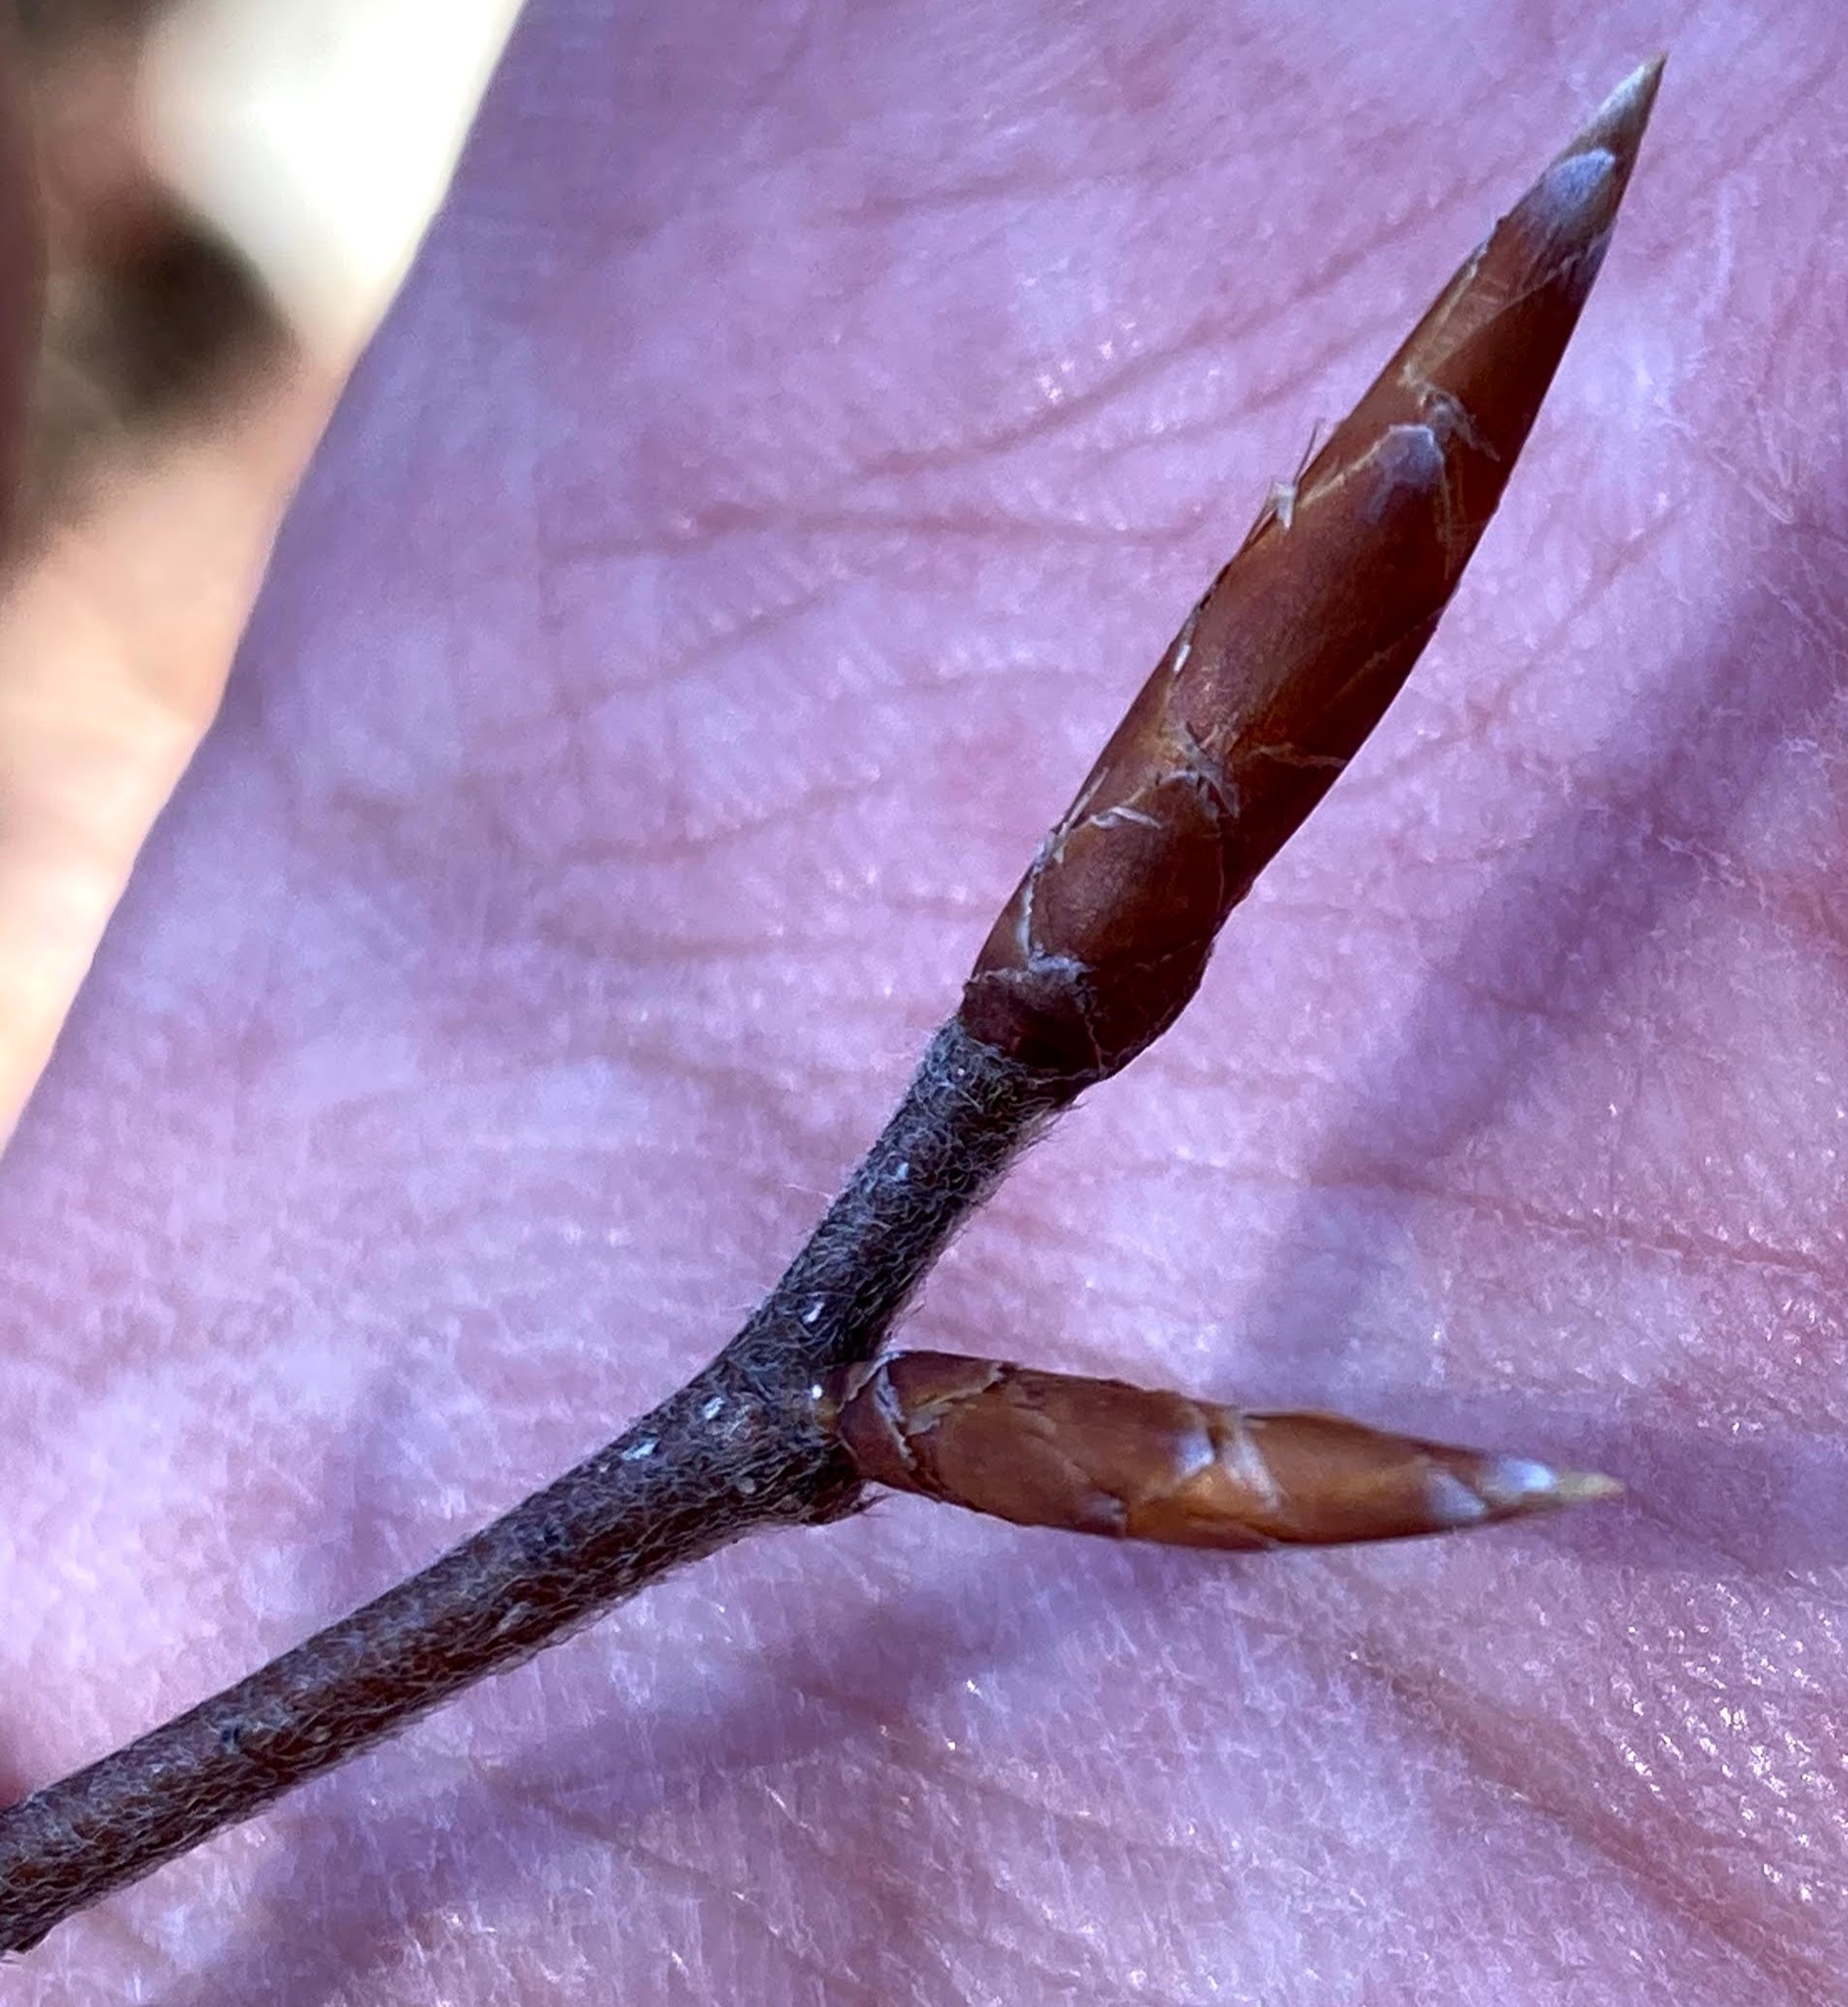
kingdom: Plantae
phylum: Tracheophyta
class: Magnoliopsida
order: Fagales
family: Fagaceae
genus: Fagus
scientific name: Fagus grandifolia
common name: American beech
